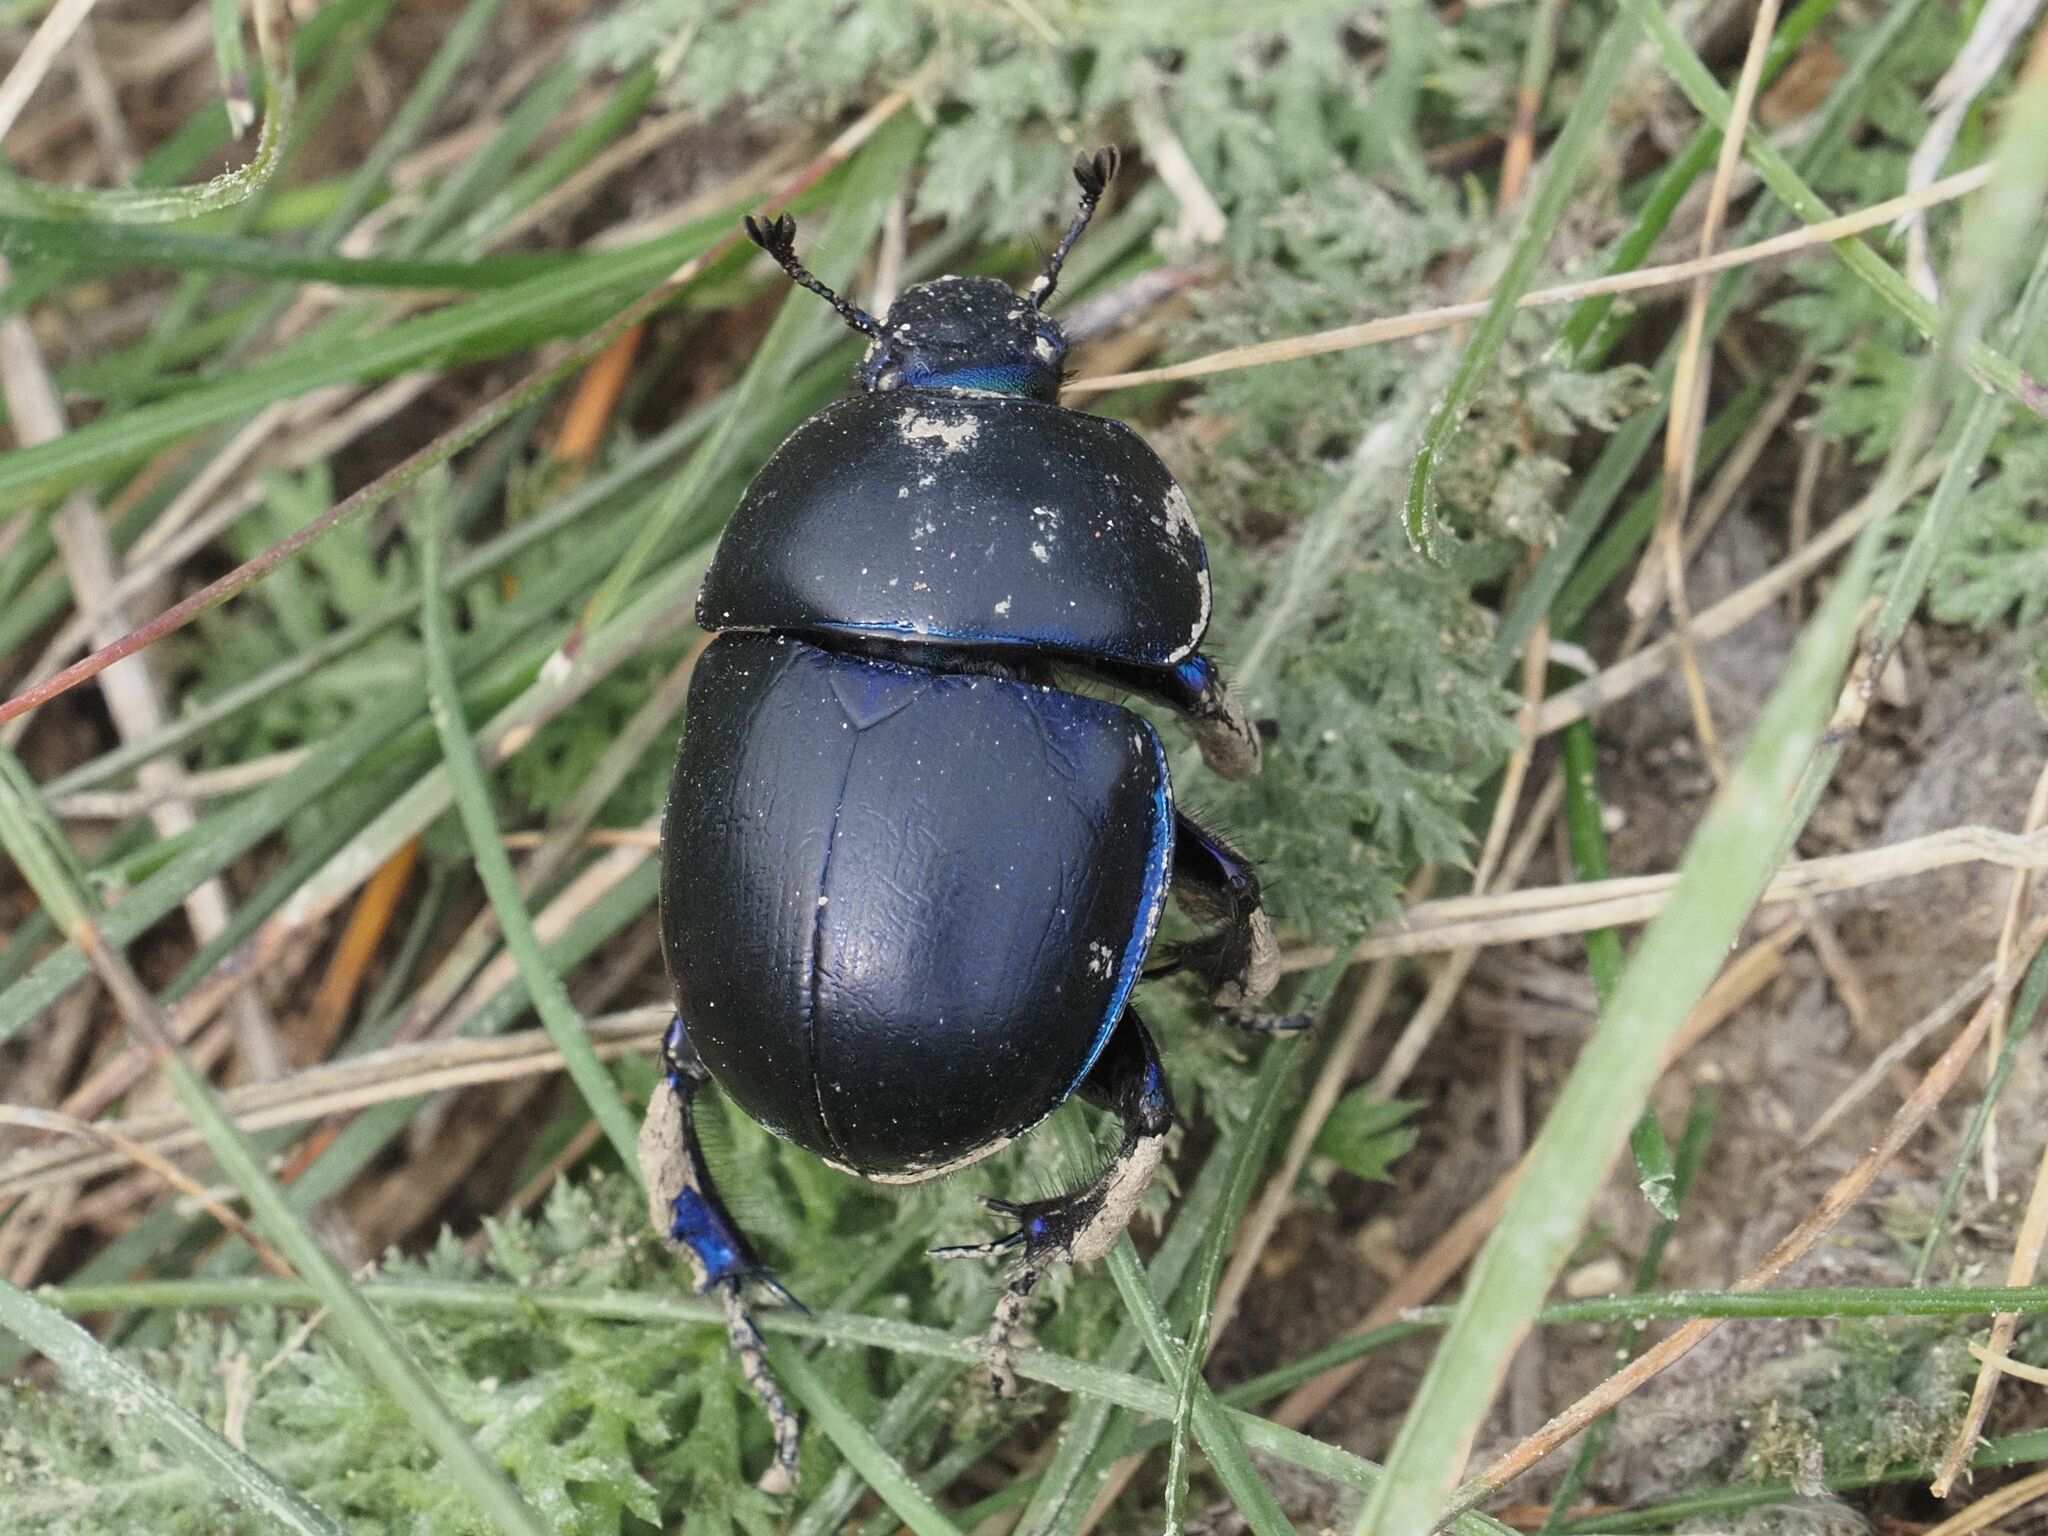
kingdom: Animalia
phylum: Arthropoda
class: Insecta
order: Coleoptera
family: Geotrupidae
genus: Trypocopris
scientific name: Trypocopris vernalis
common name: Spring dumbledor
